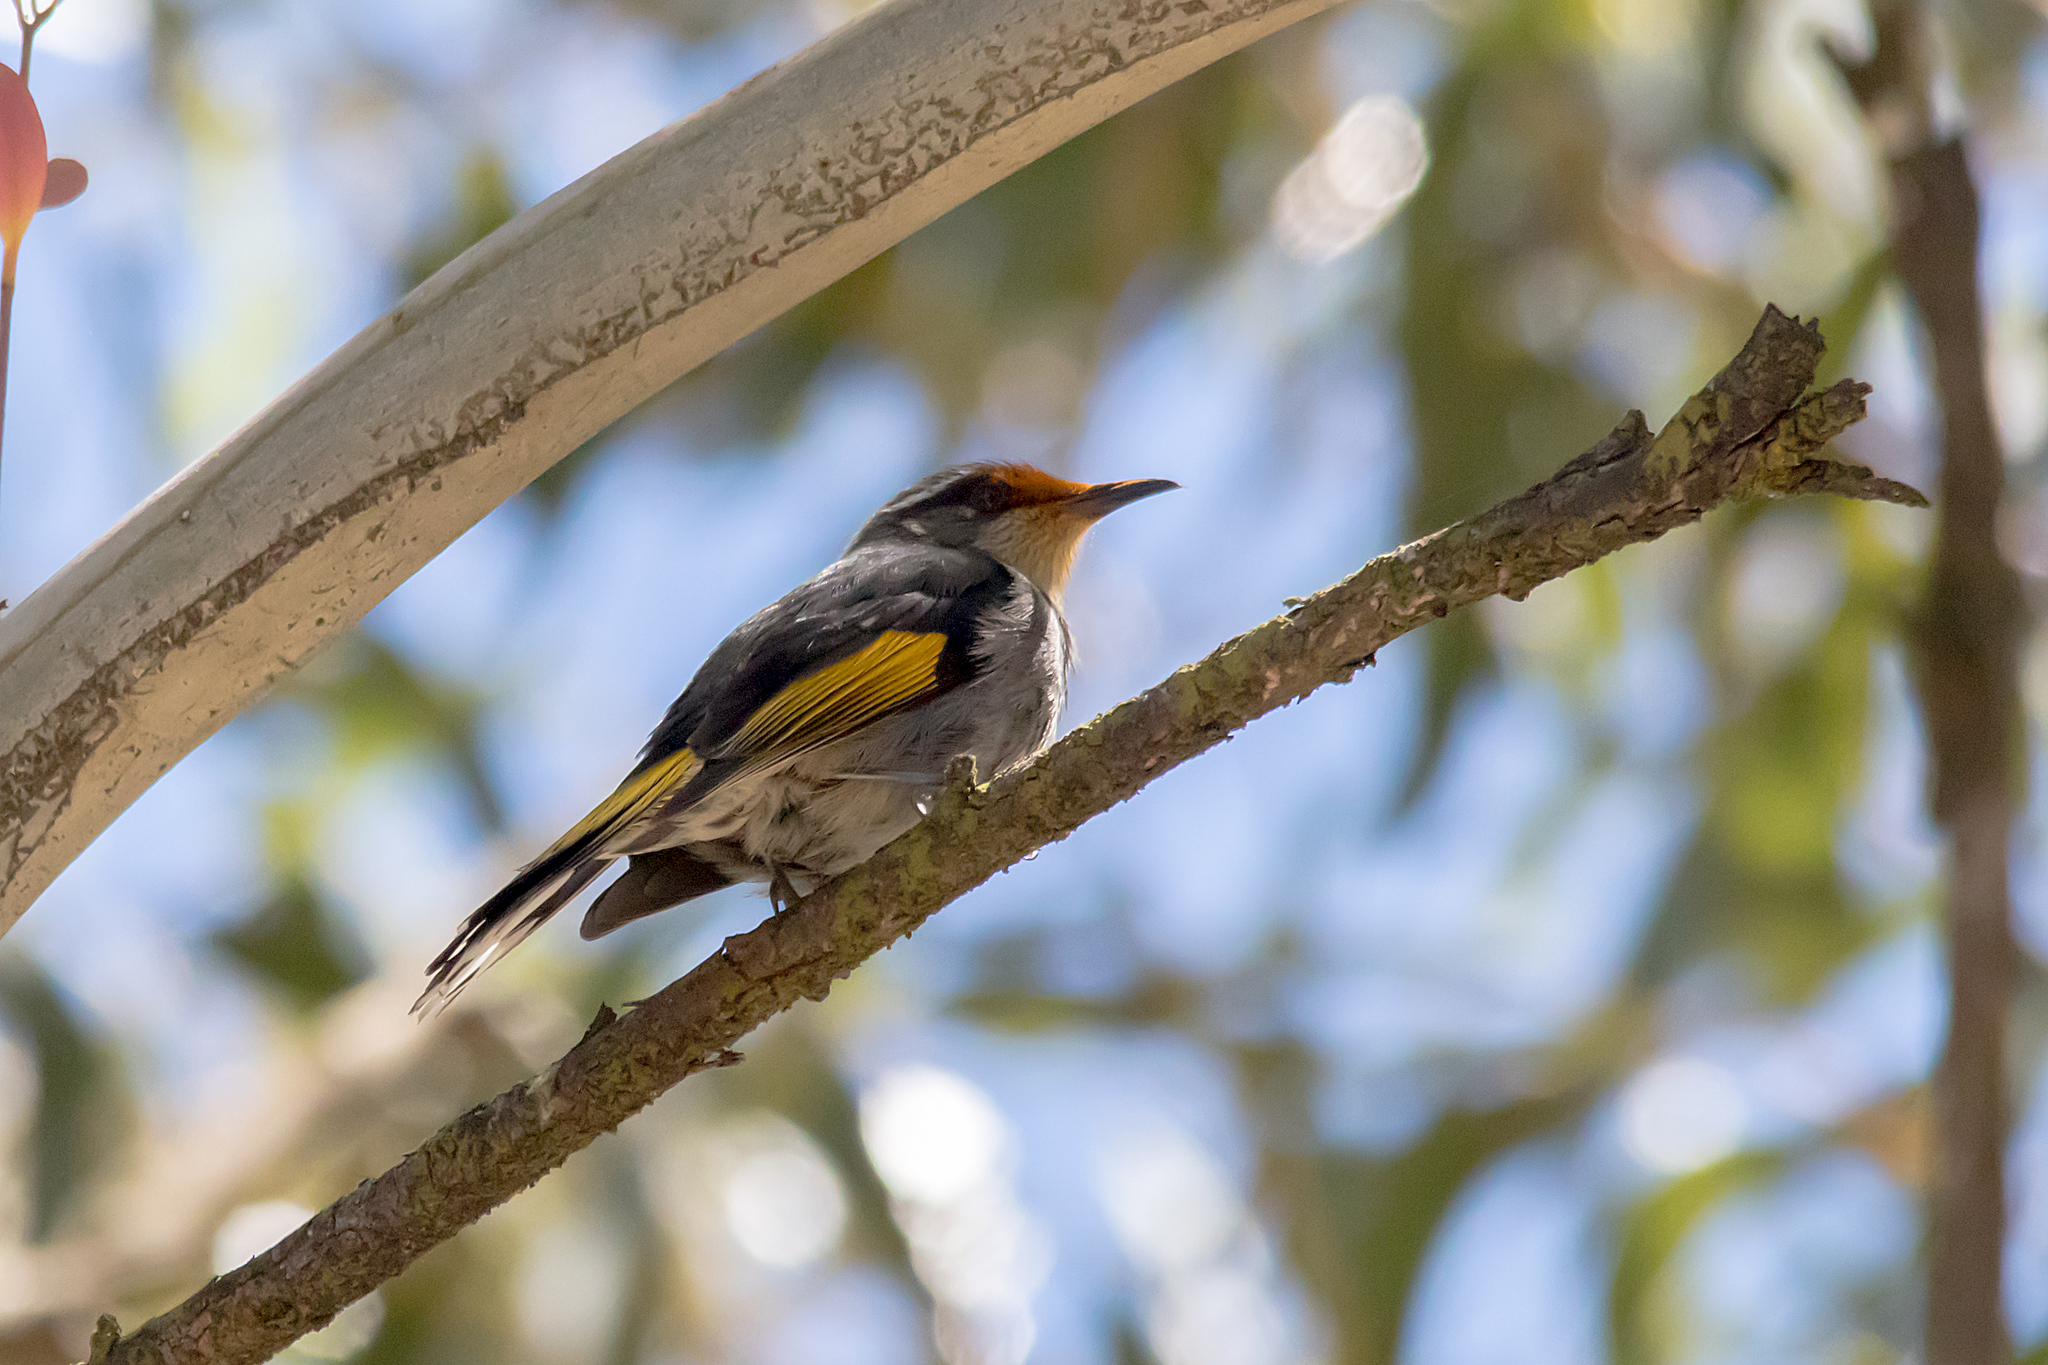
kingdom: Animalia
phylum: Chordata
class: Aves
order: Passeriformes
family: Meliphagidae
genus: Phylidonyris
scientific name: Phylidonyris pyrrhopterus
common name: Crescent honeyeater
